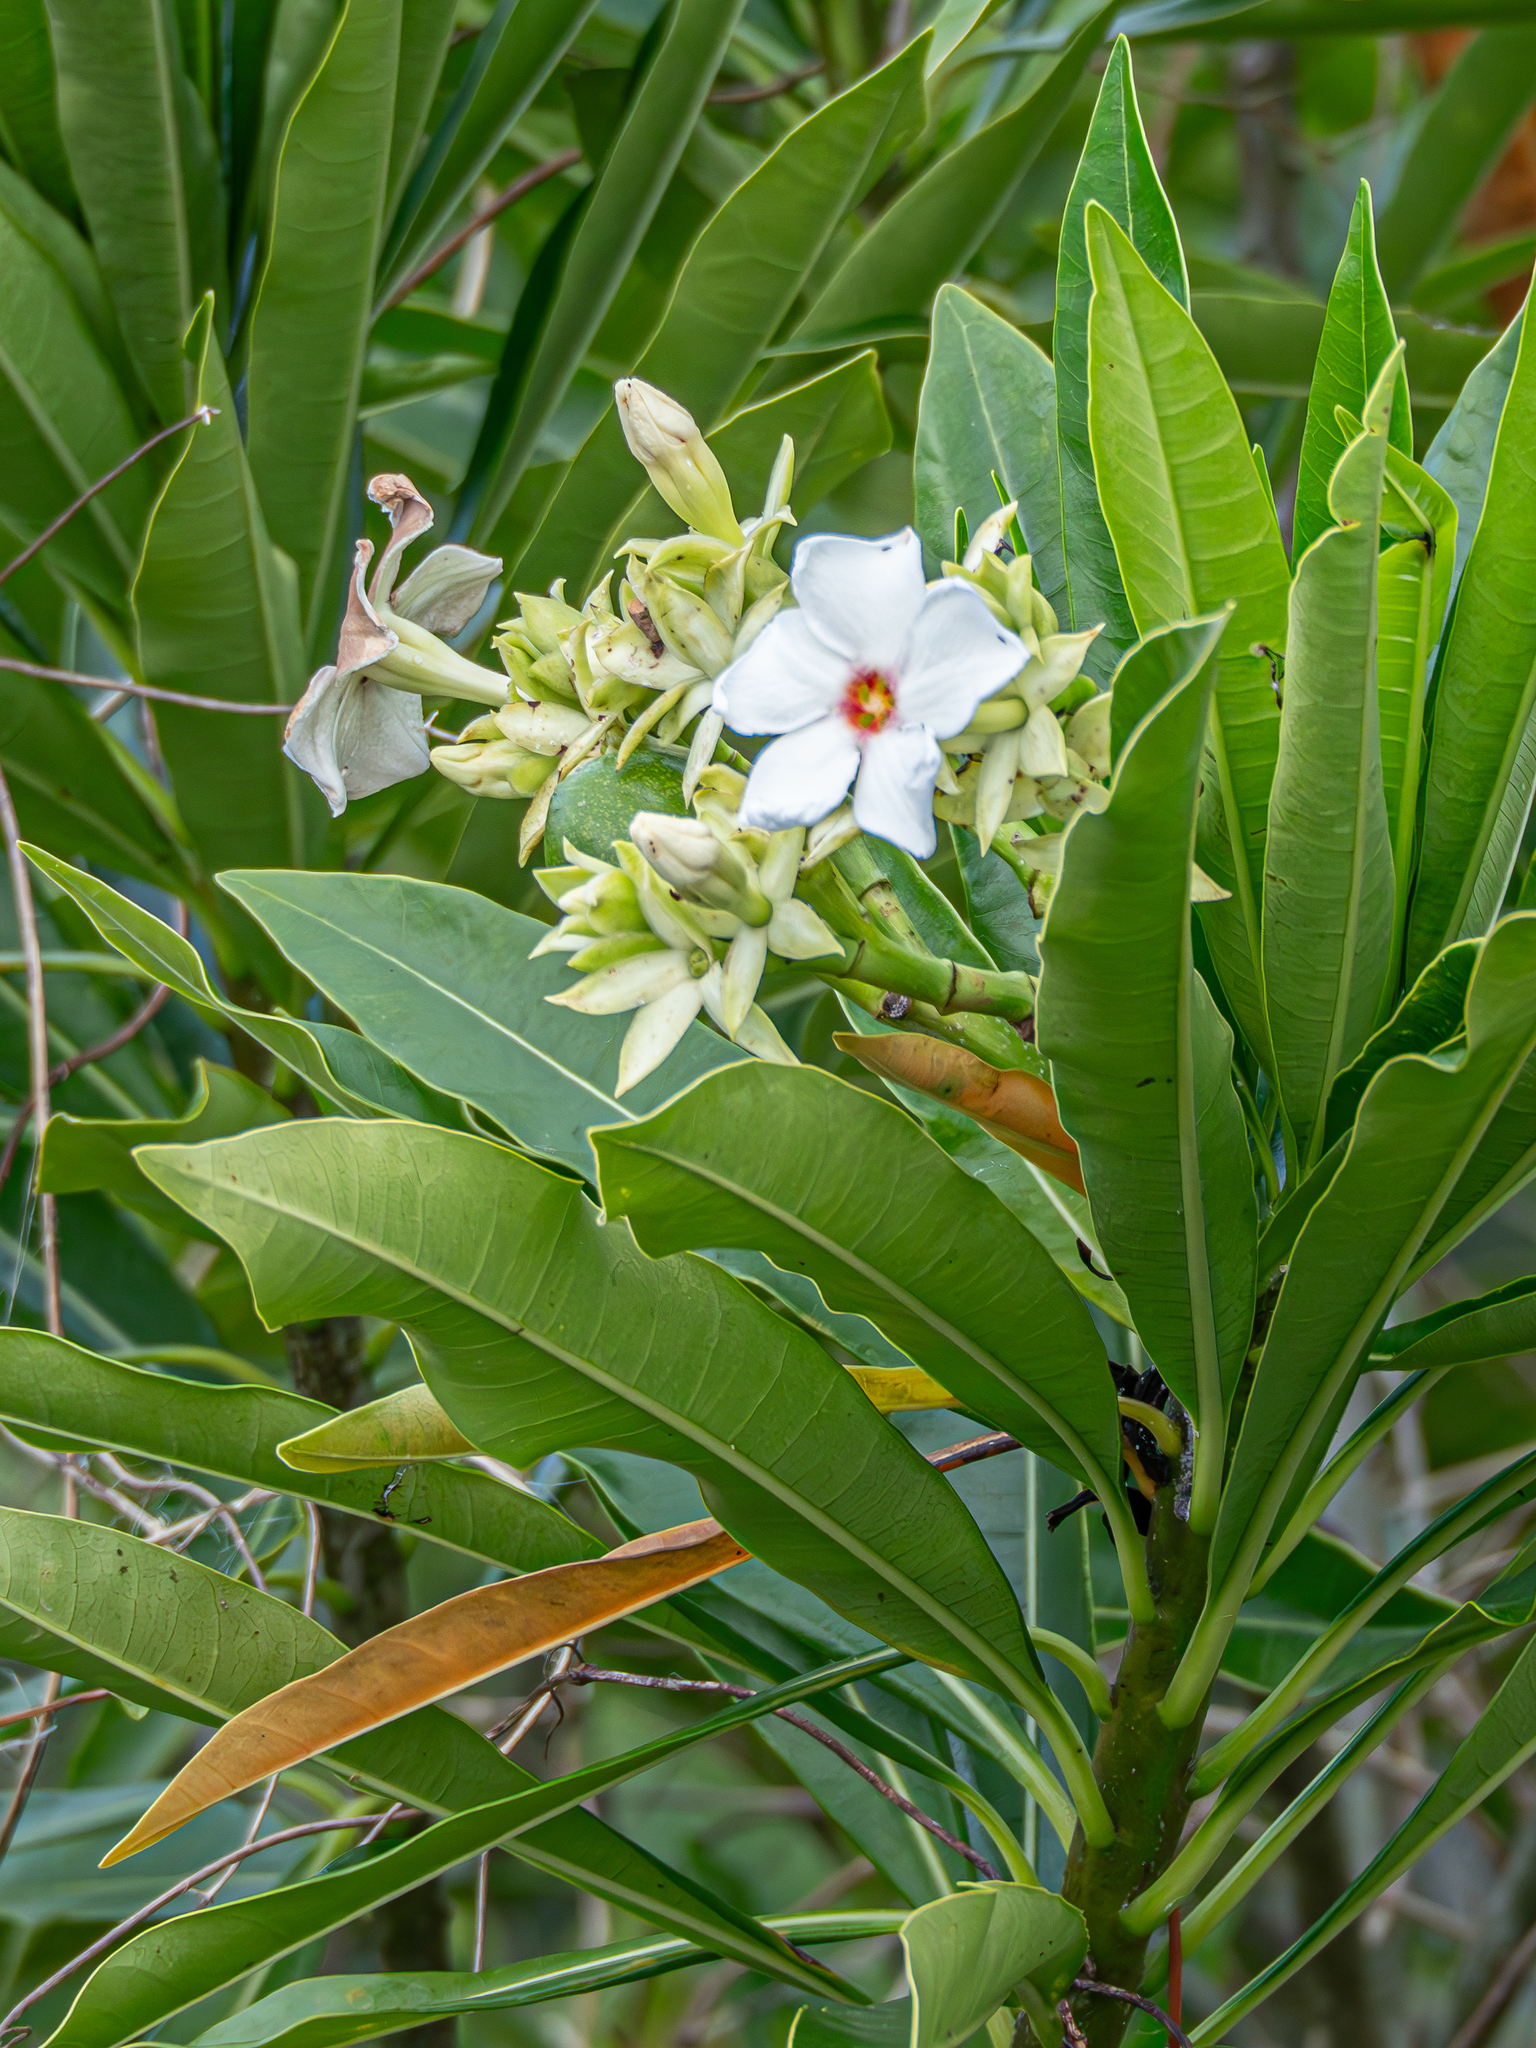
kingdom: Plantae
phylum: Tracheophyta
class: Magnoliopsida
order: Gentianales
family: Apocynaceae
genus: Cerbera
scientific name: Cerbera manghas
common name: Reva
